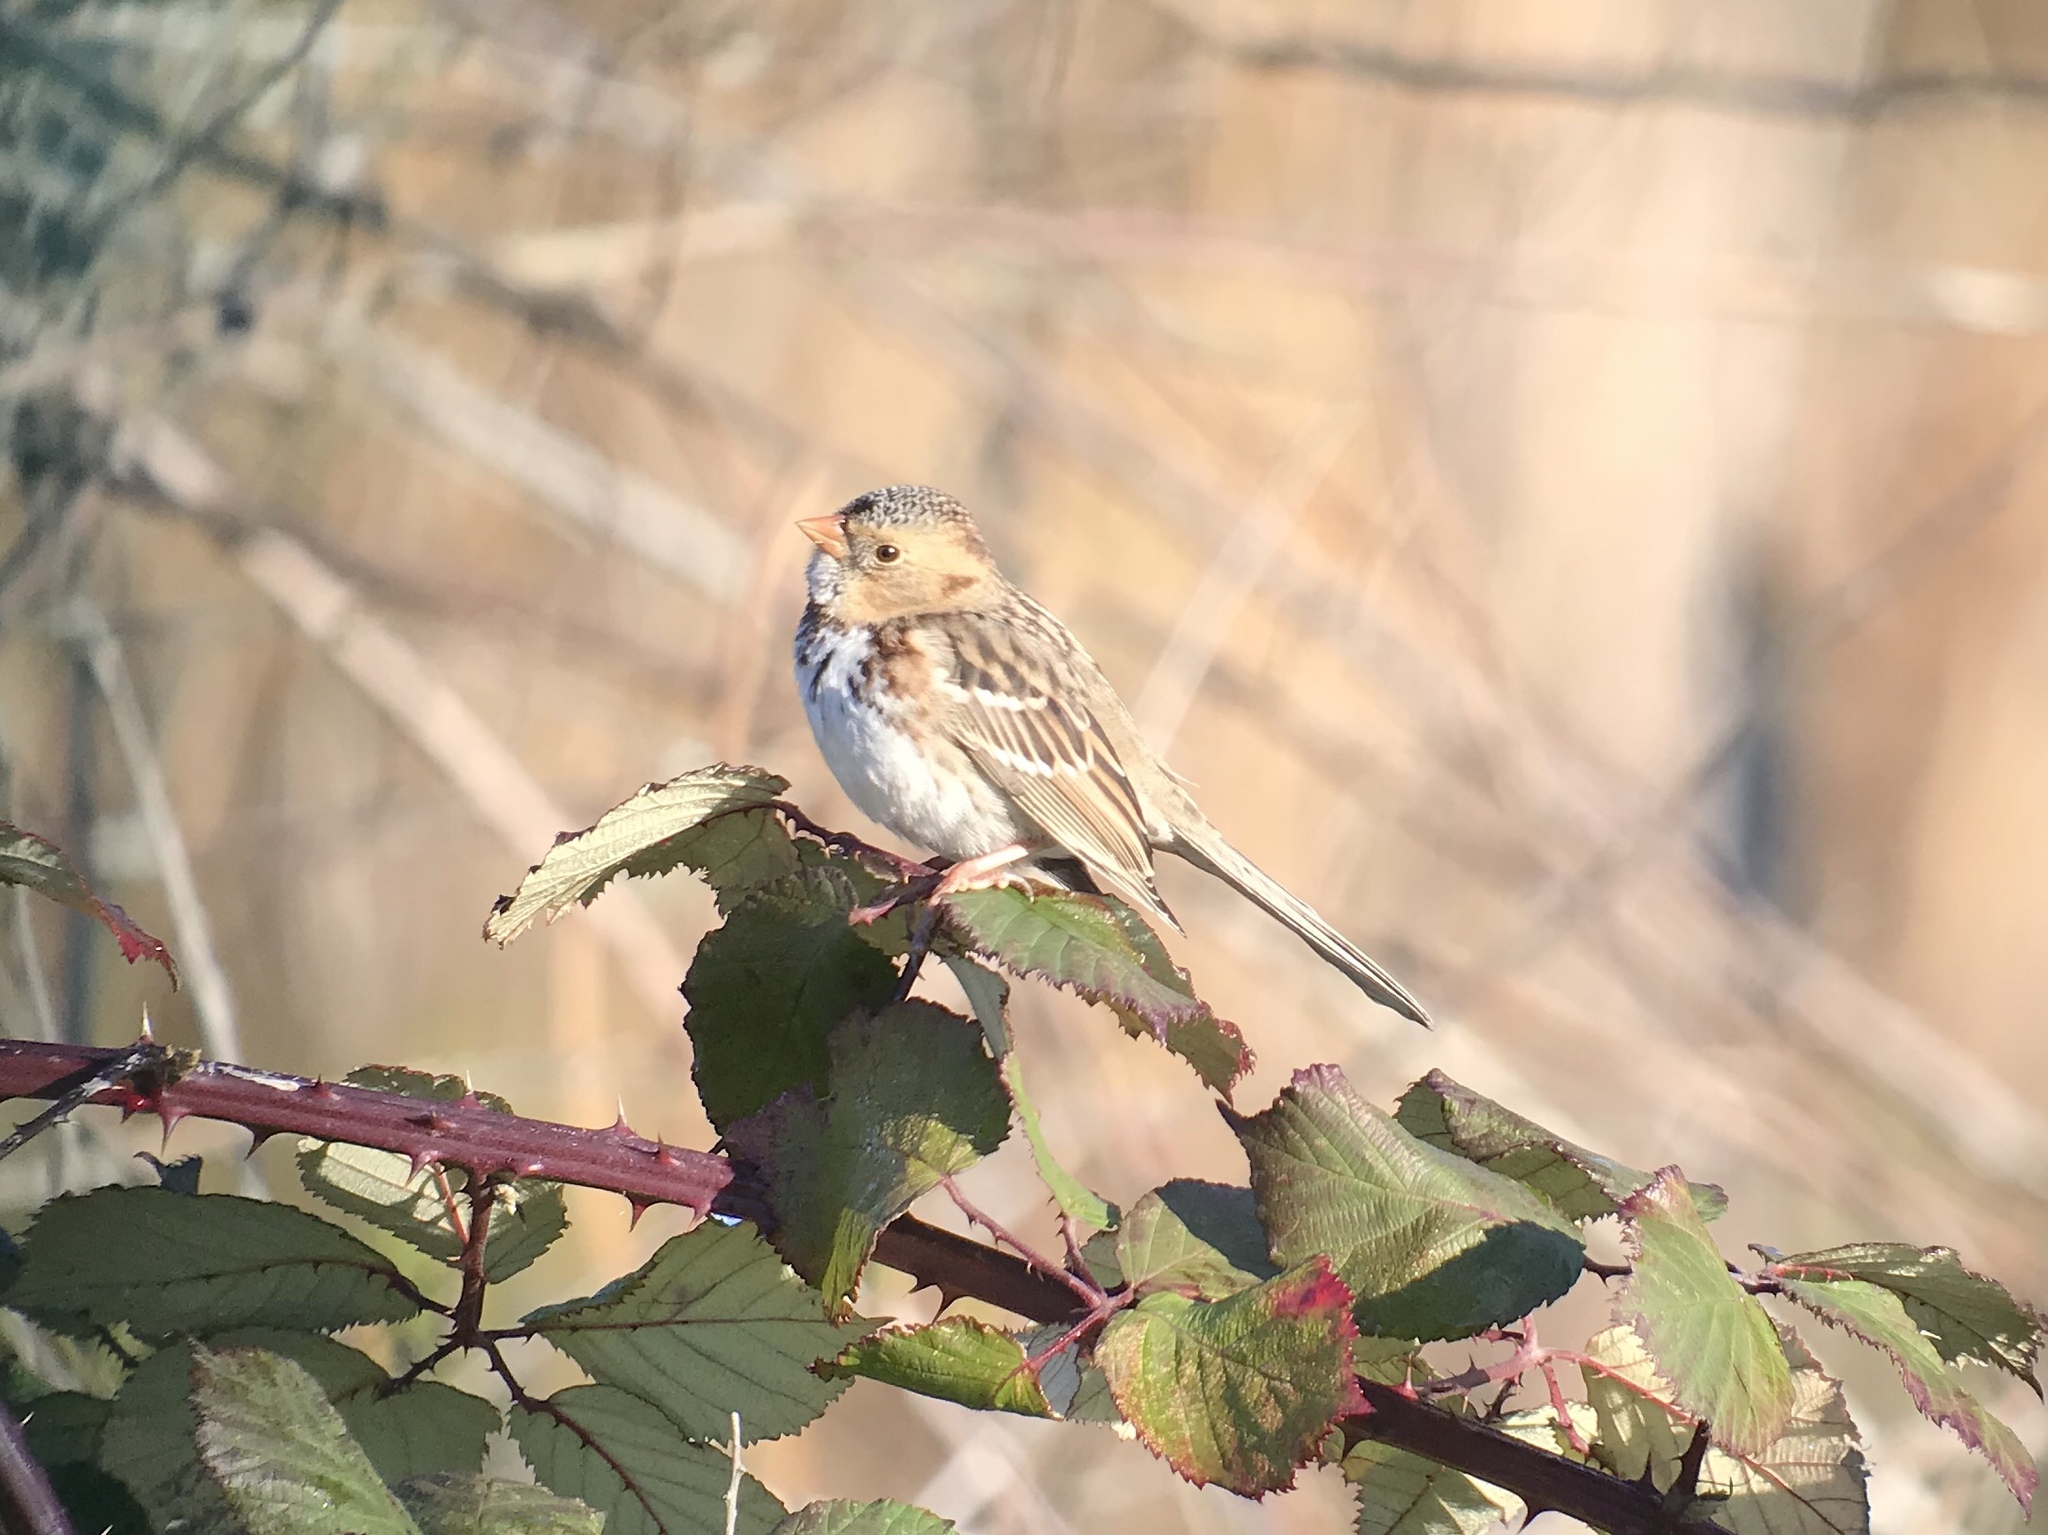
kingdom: Animalia
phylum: Chordata
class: Aves
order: Passeriformes
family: Passerellidae
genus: Zonotrichia
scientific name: Zonotrichia querula
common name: Harris's sparrow
